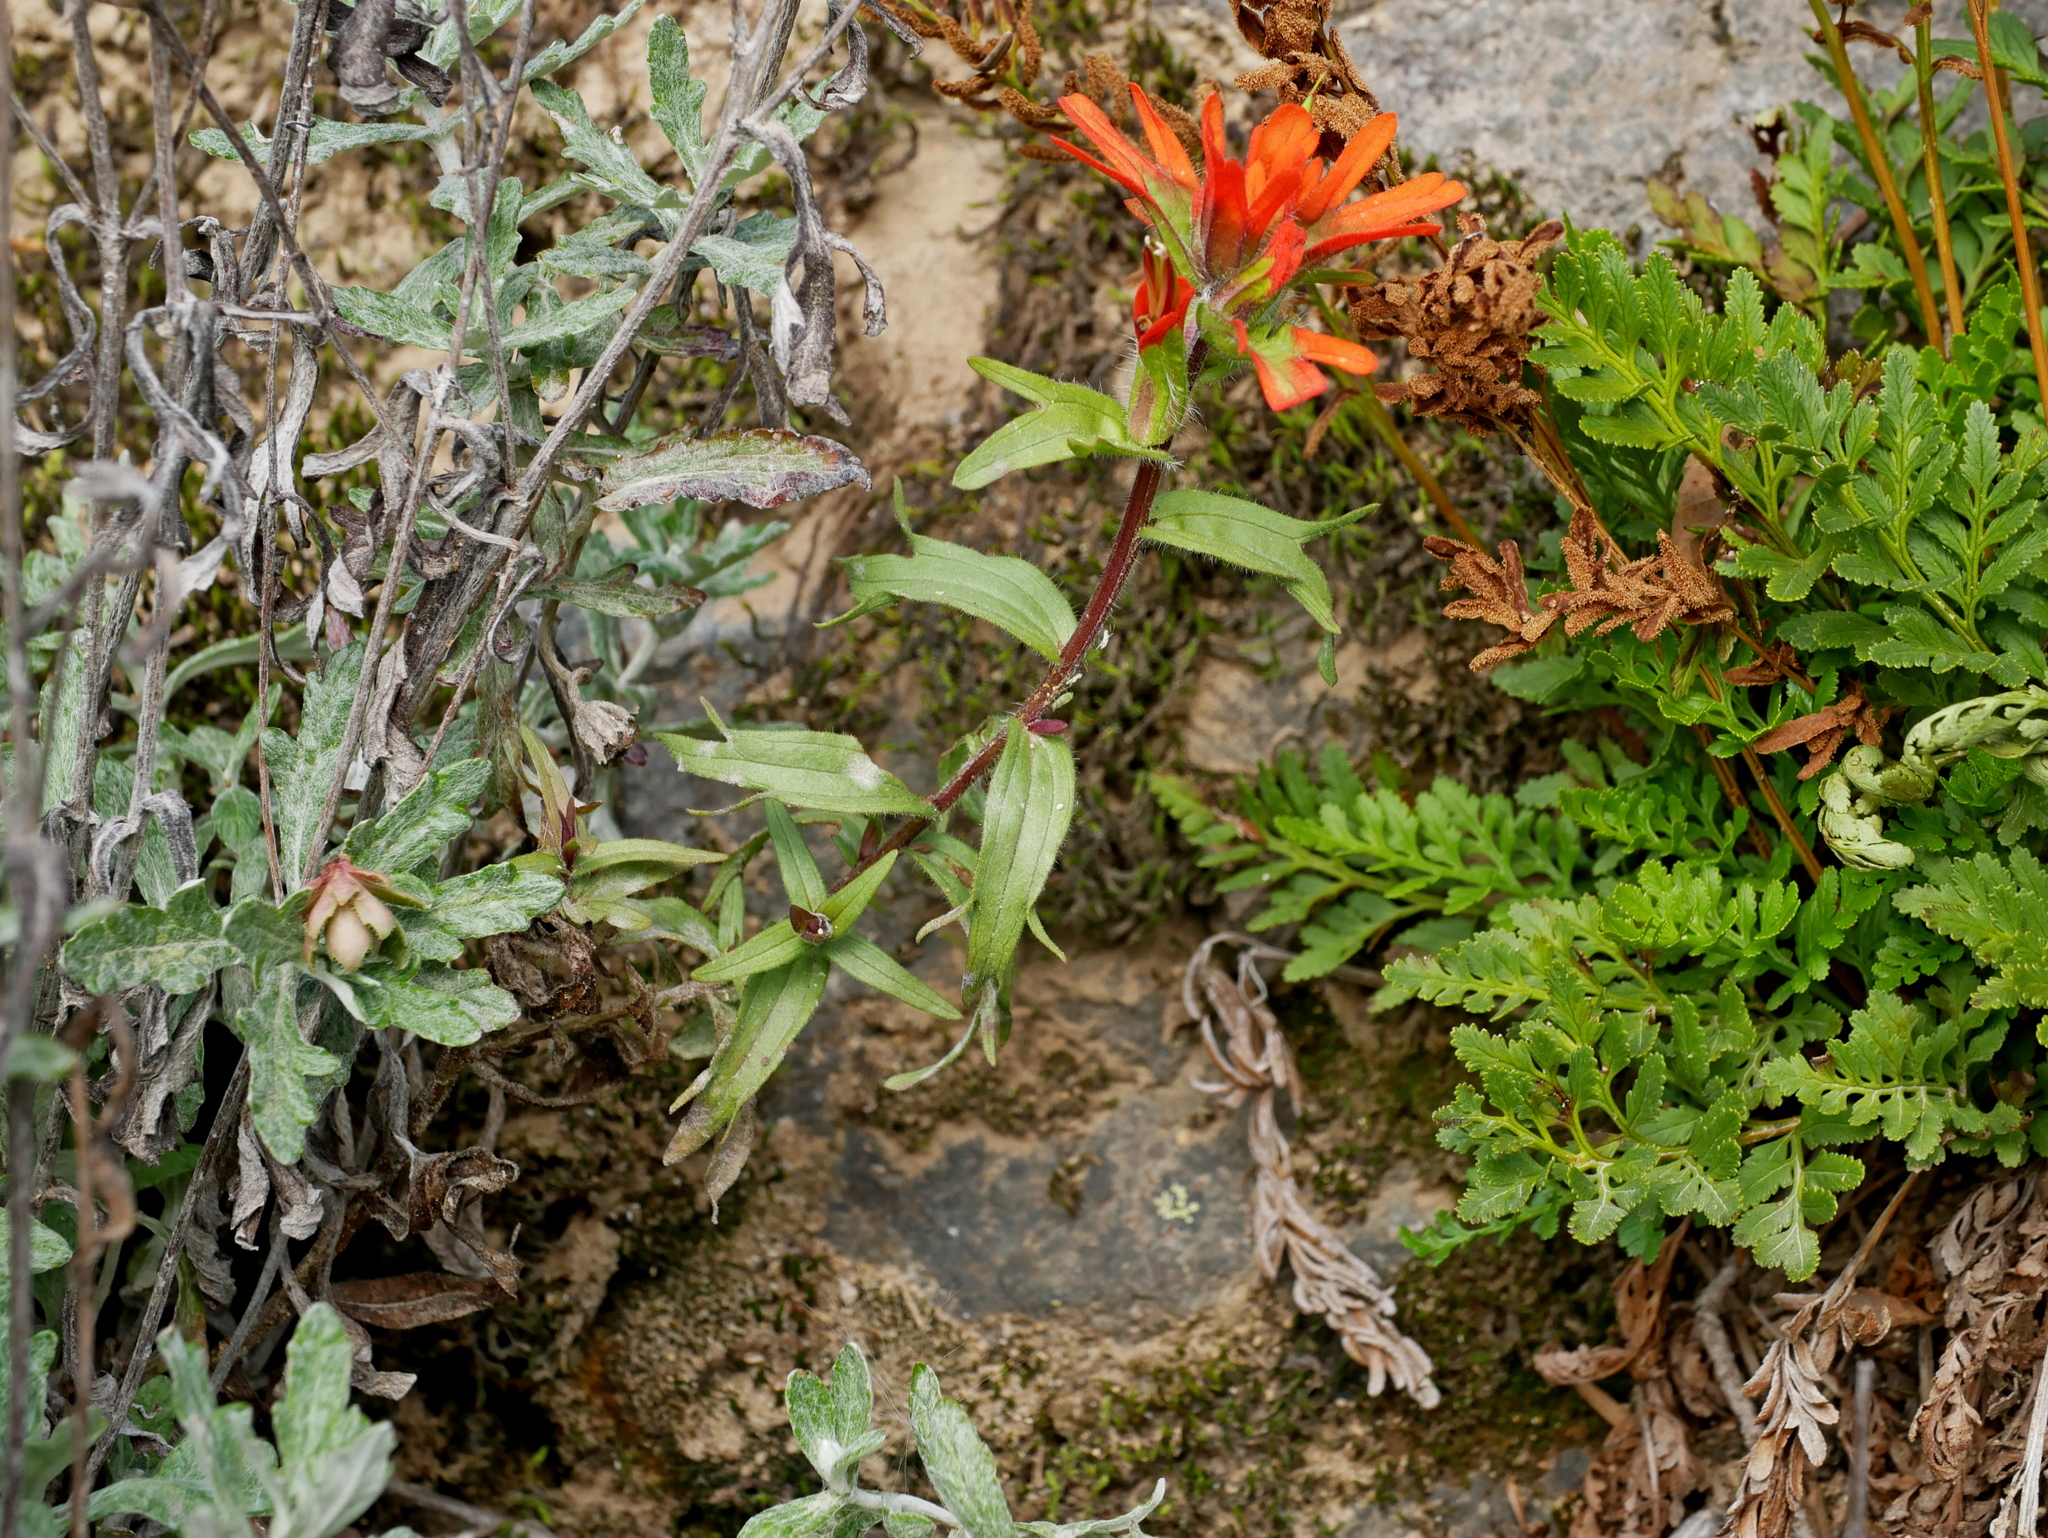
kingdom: Plantae
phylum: Tracheophyta
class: Magnoliopsida
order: Lamiales
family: Orobanchaceae
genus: Castilleja
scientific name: Castilleja hispida
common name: Bristly paintbrush
